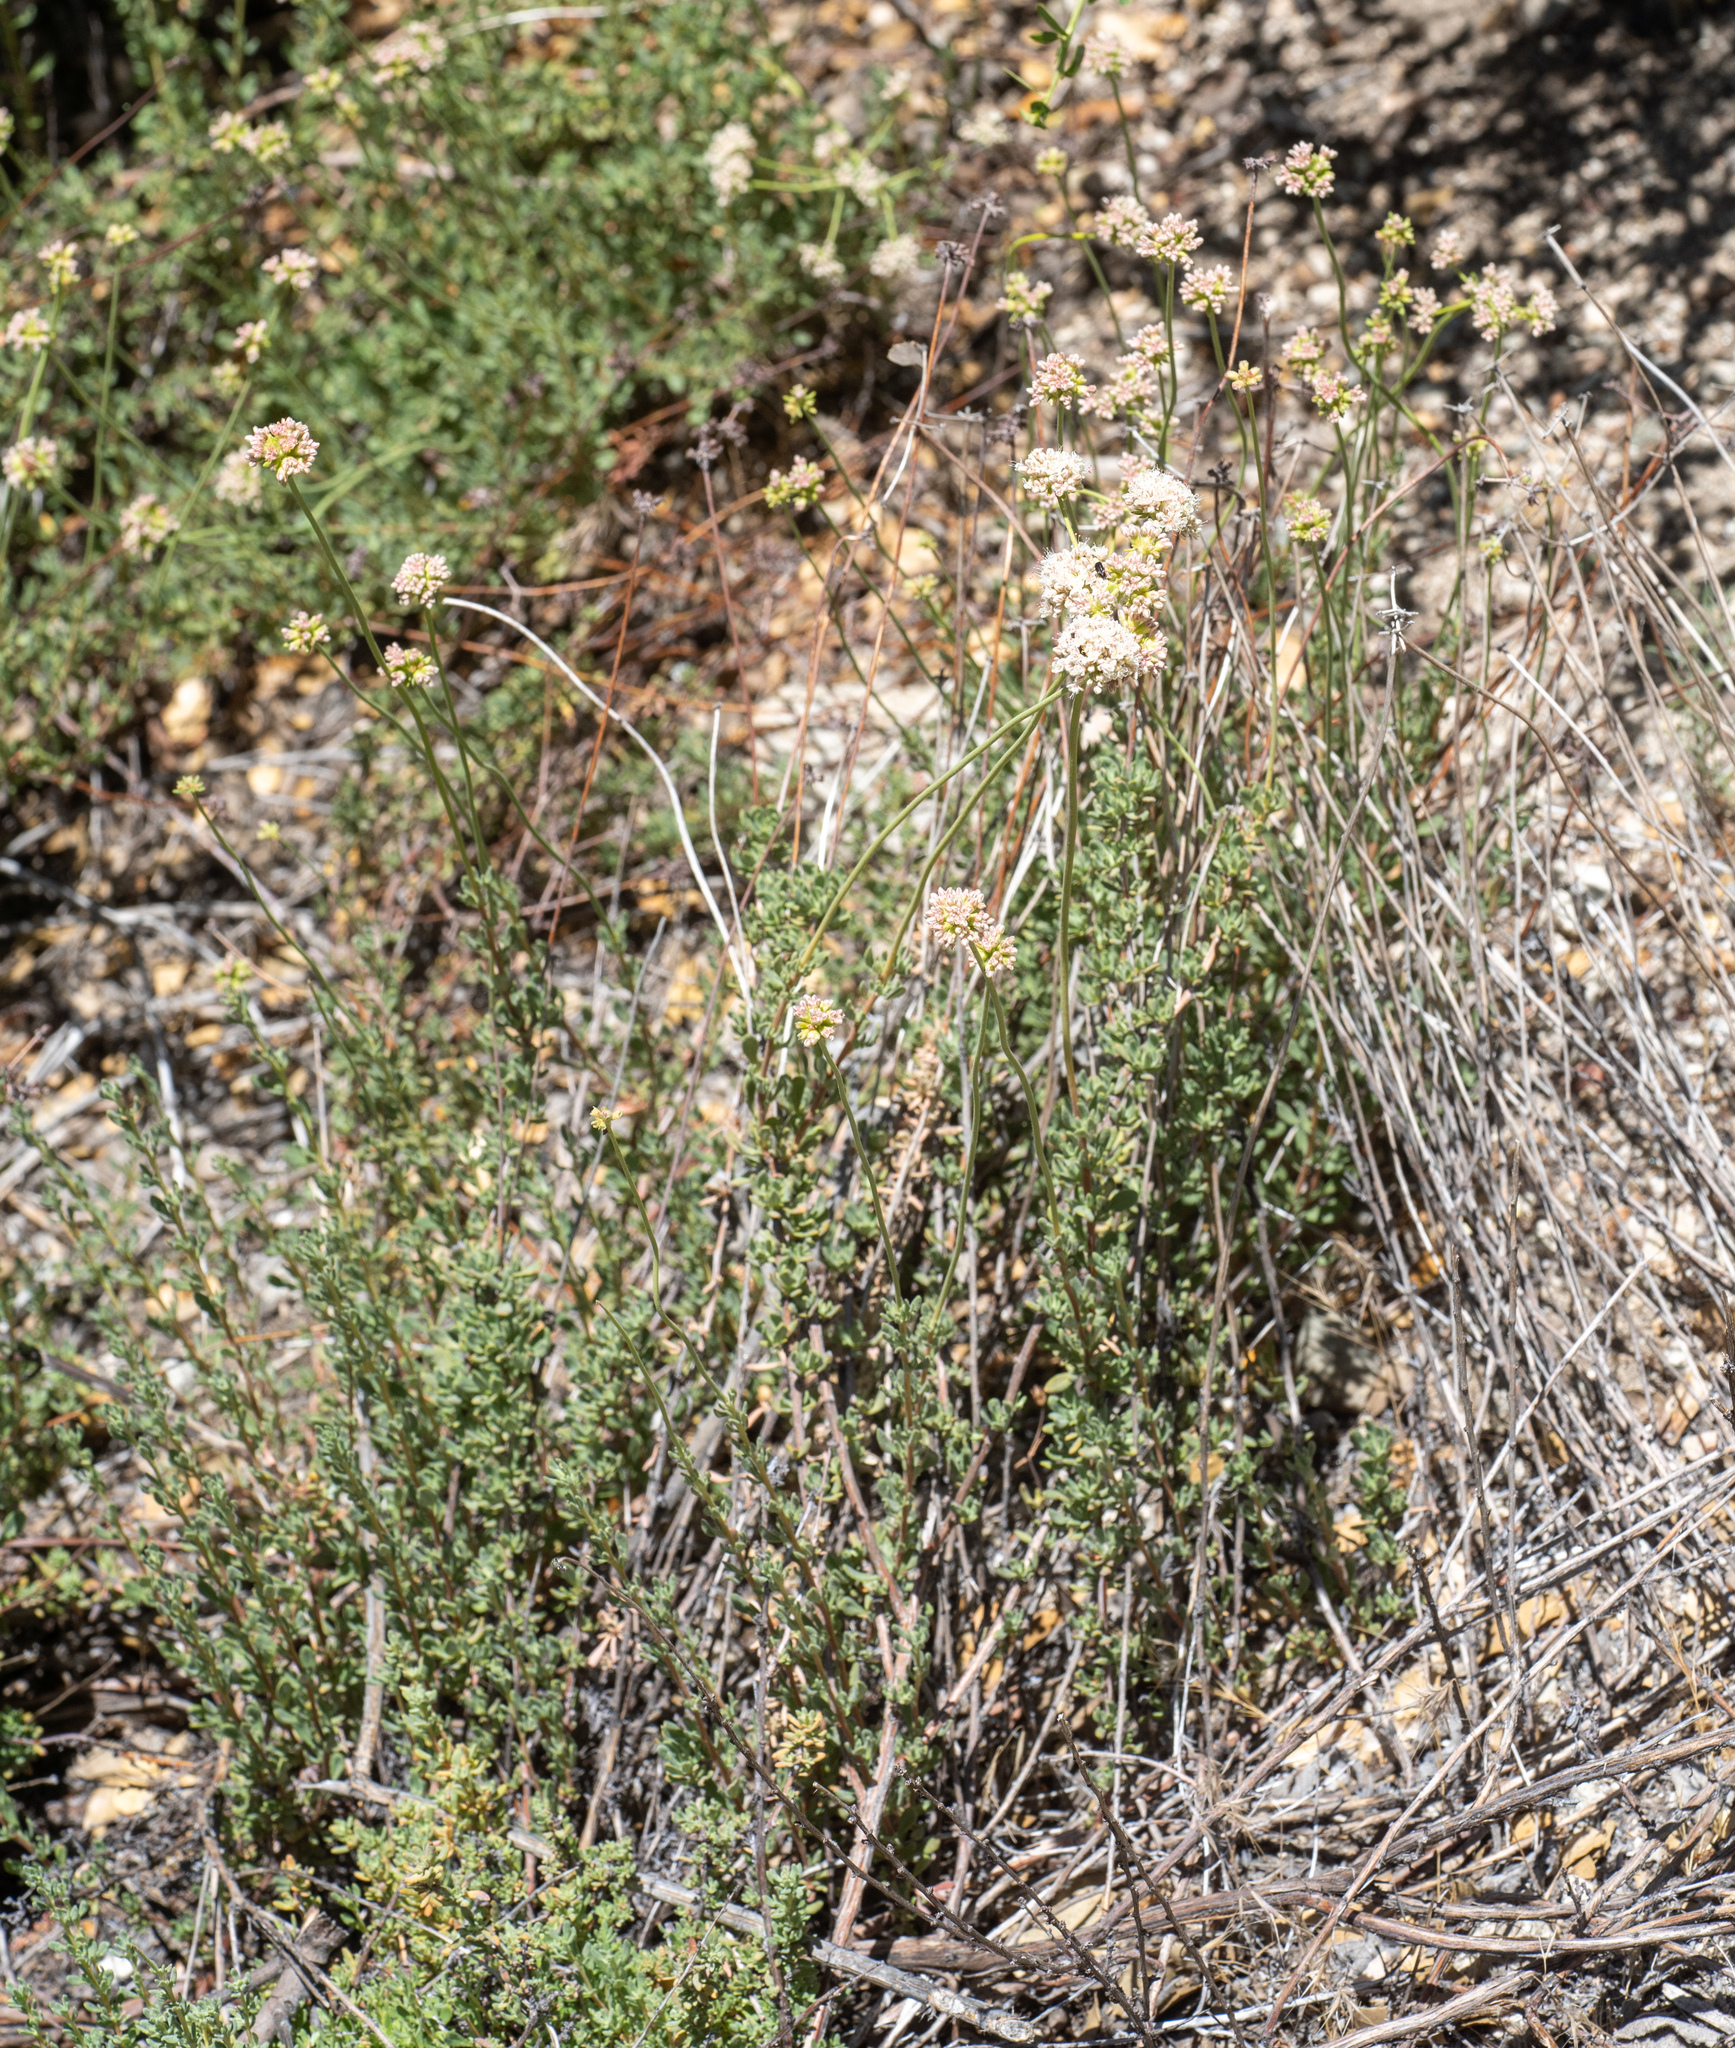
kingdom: Plantae
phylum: Tracheophyta
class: Magnoliopsida
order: Caryophyllales
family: Polygonaceae
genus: Eriogonum
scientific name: Eriogonum fasciculatum
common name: California wild buckwheat
